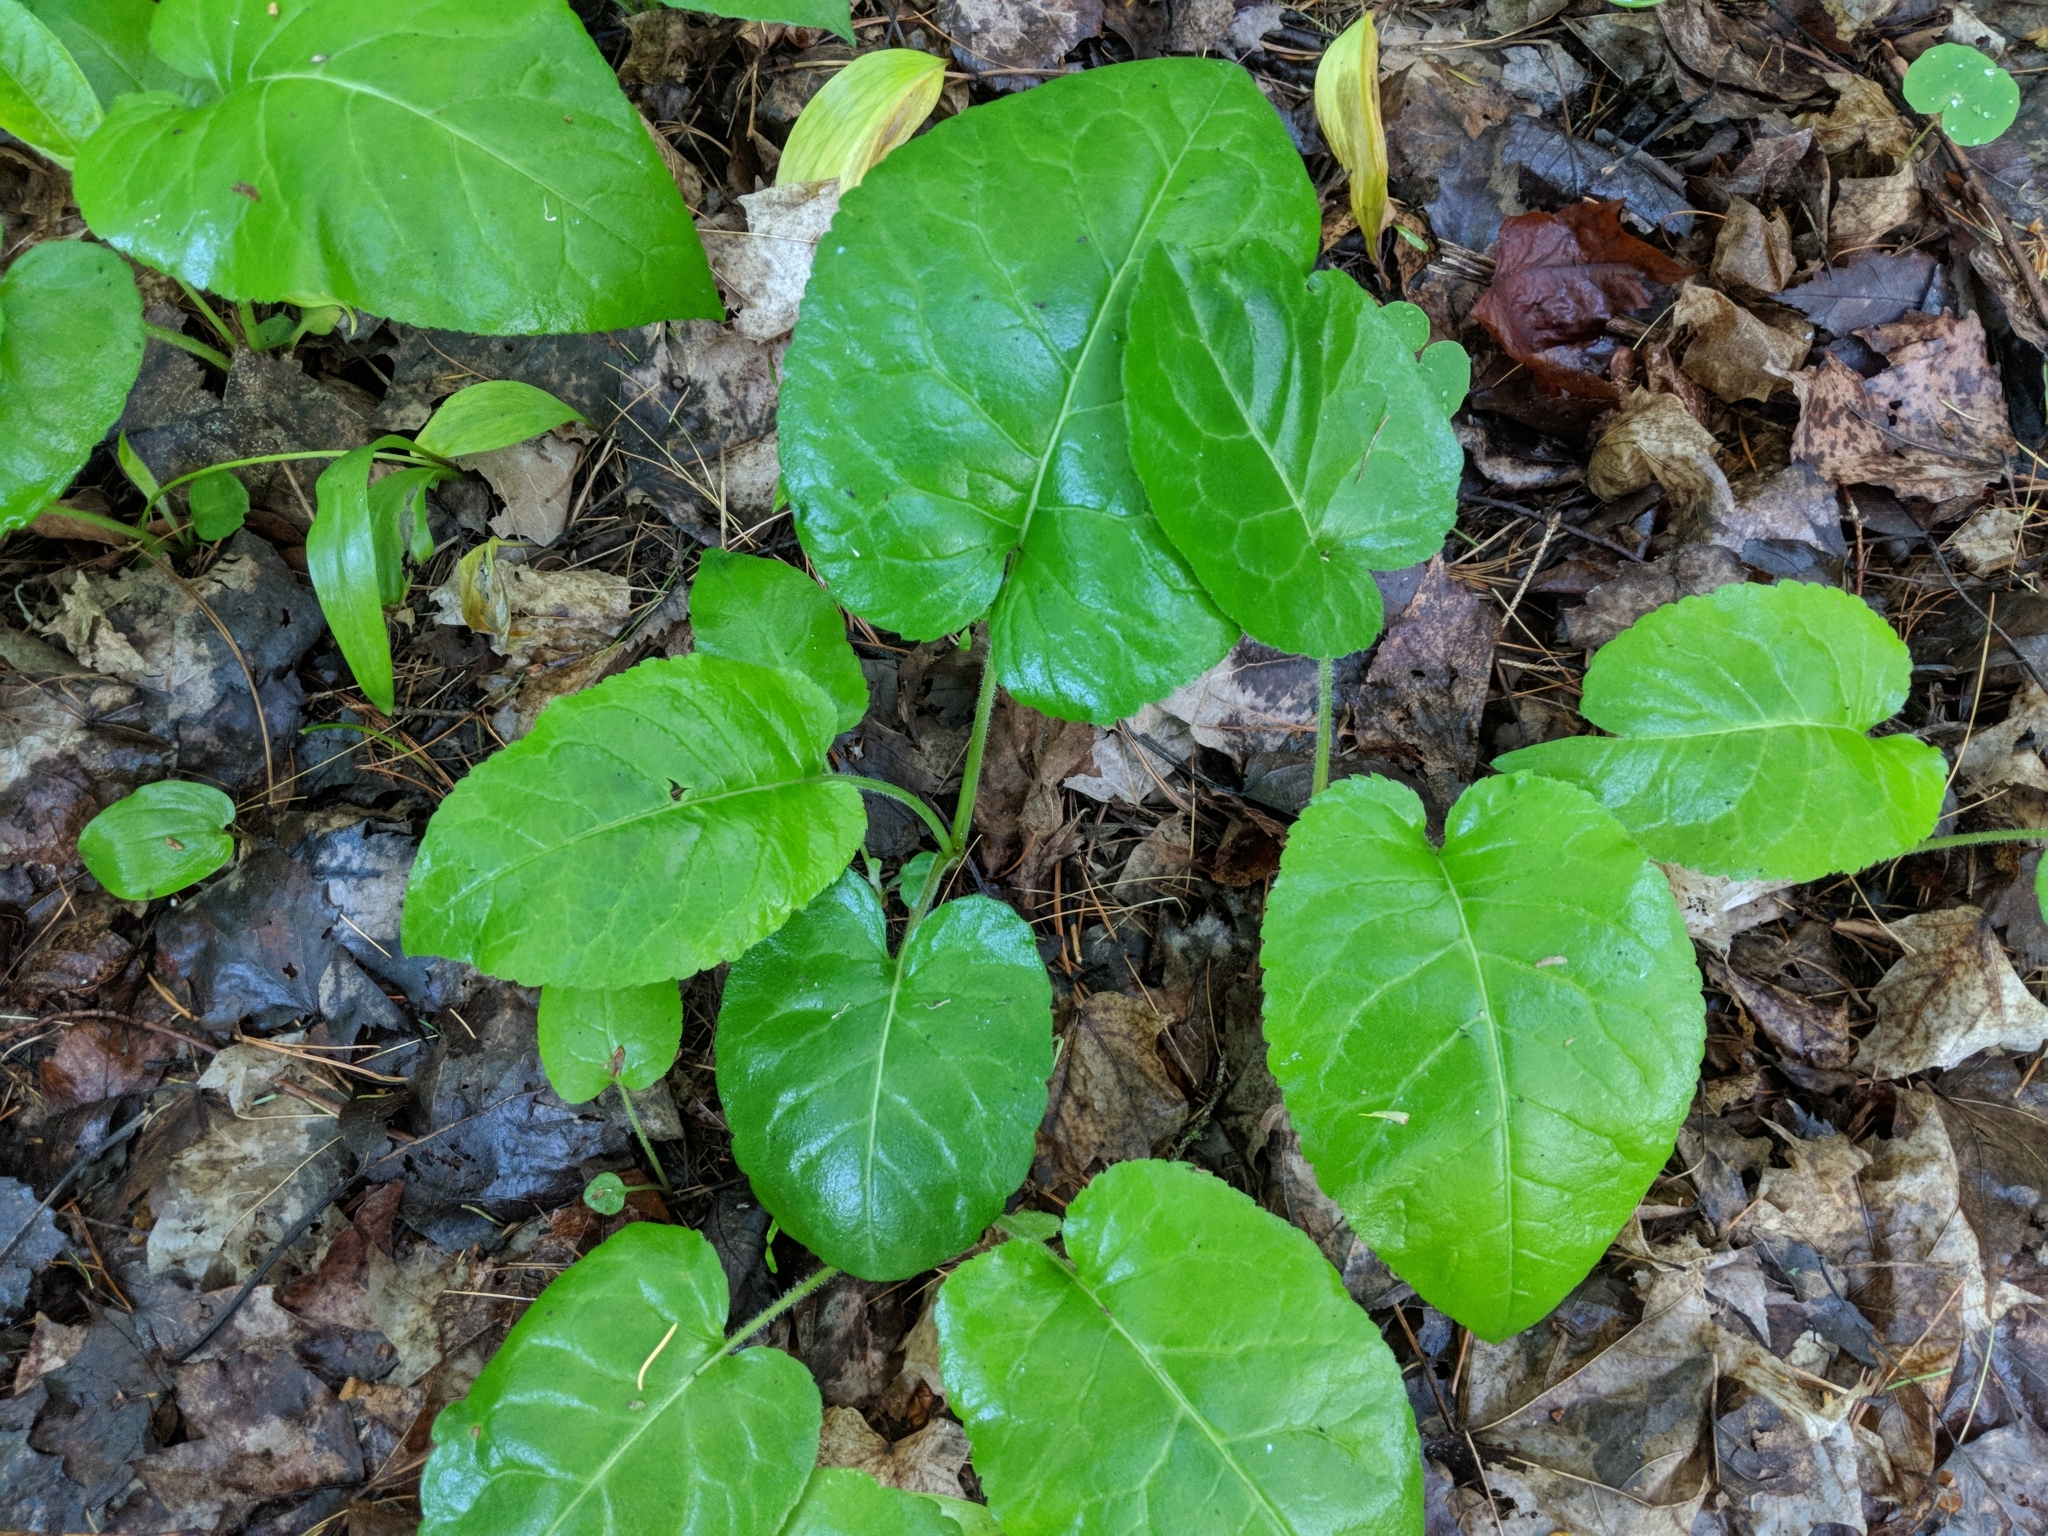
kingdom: Plantae
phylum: Tracheophyta
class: Magnoliopsida
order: Asterales
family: Asteraceae
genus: Eurybia
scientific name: Eurybia macrophylla
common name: Big-leaved aster
